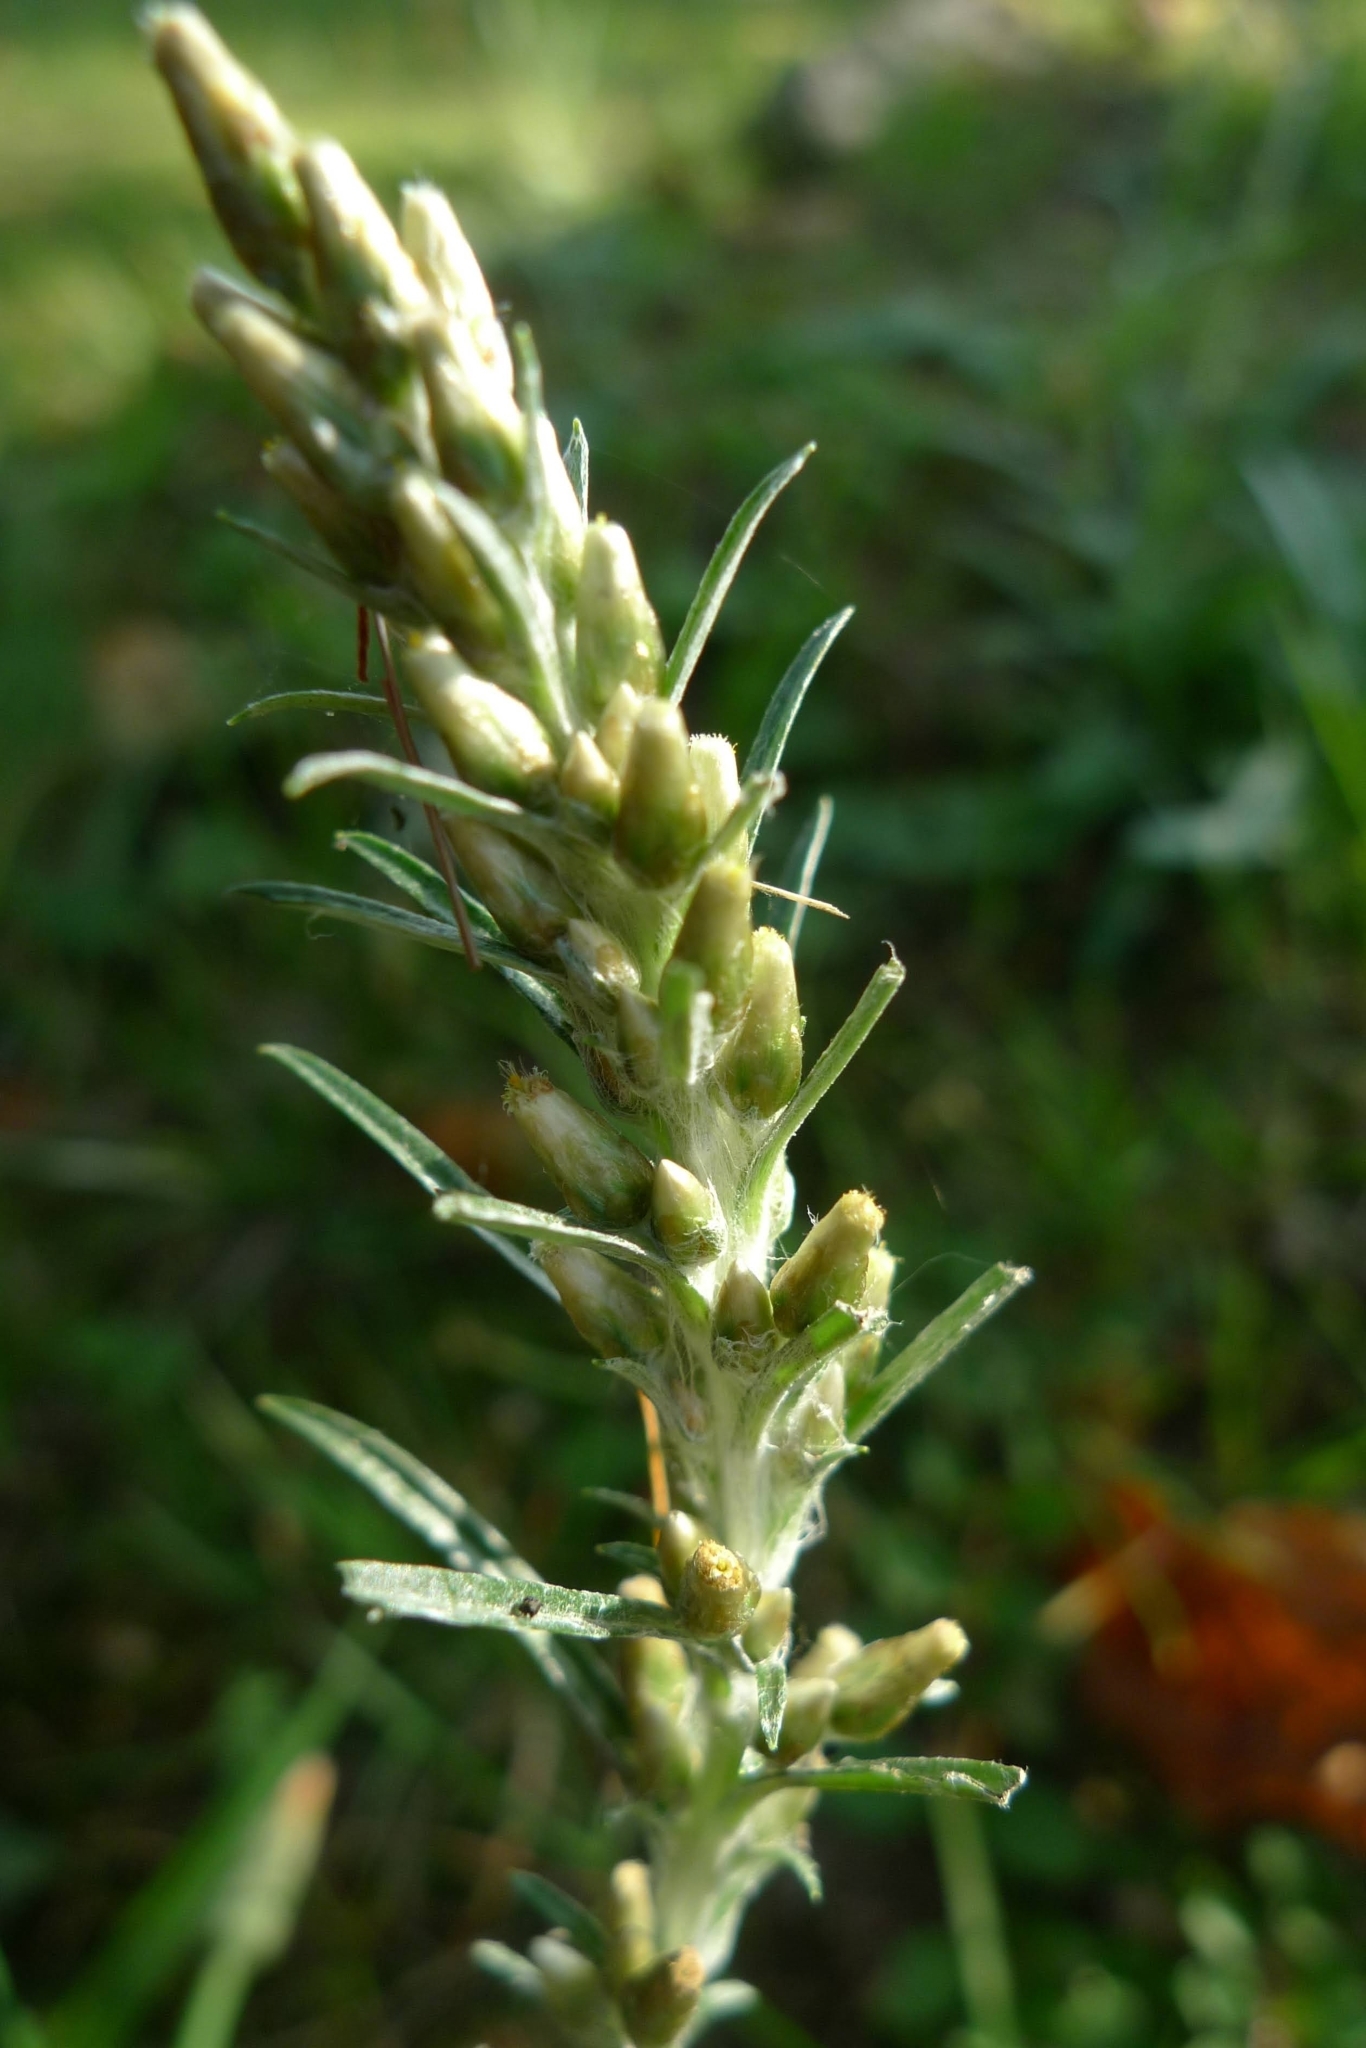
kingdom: Plantae
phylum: Tracheophyta
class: Magnoliopsida
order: Asterales
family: Asteraceae
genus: Omalotheca
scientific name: Omalotheca sylvatica
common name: Heath cudweed
